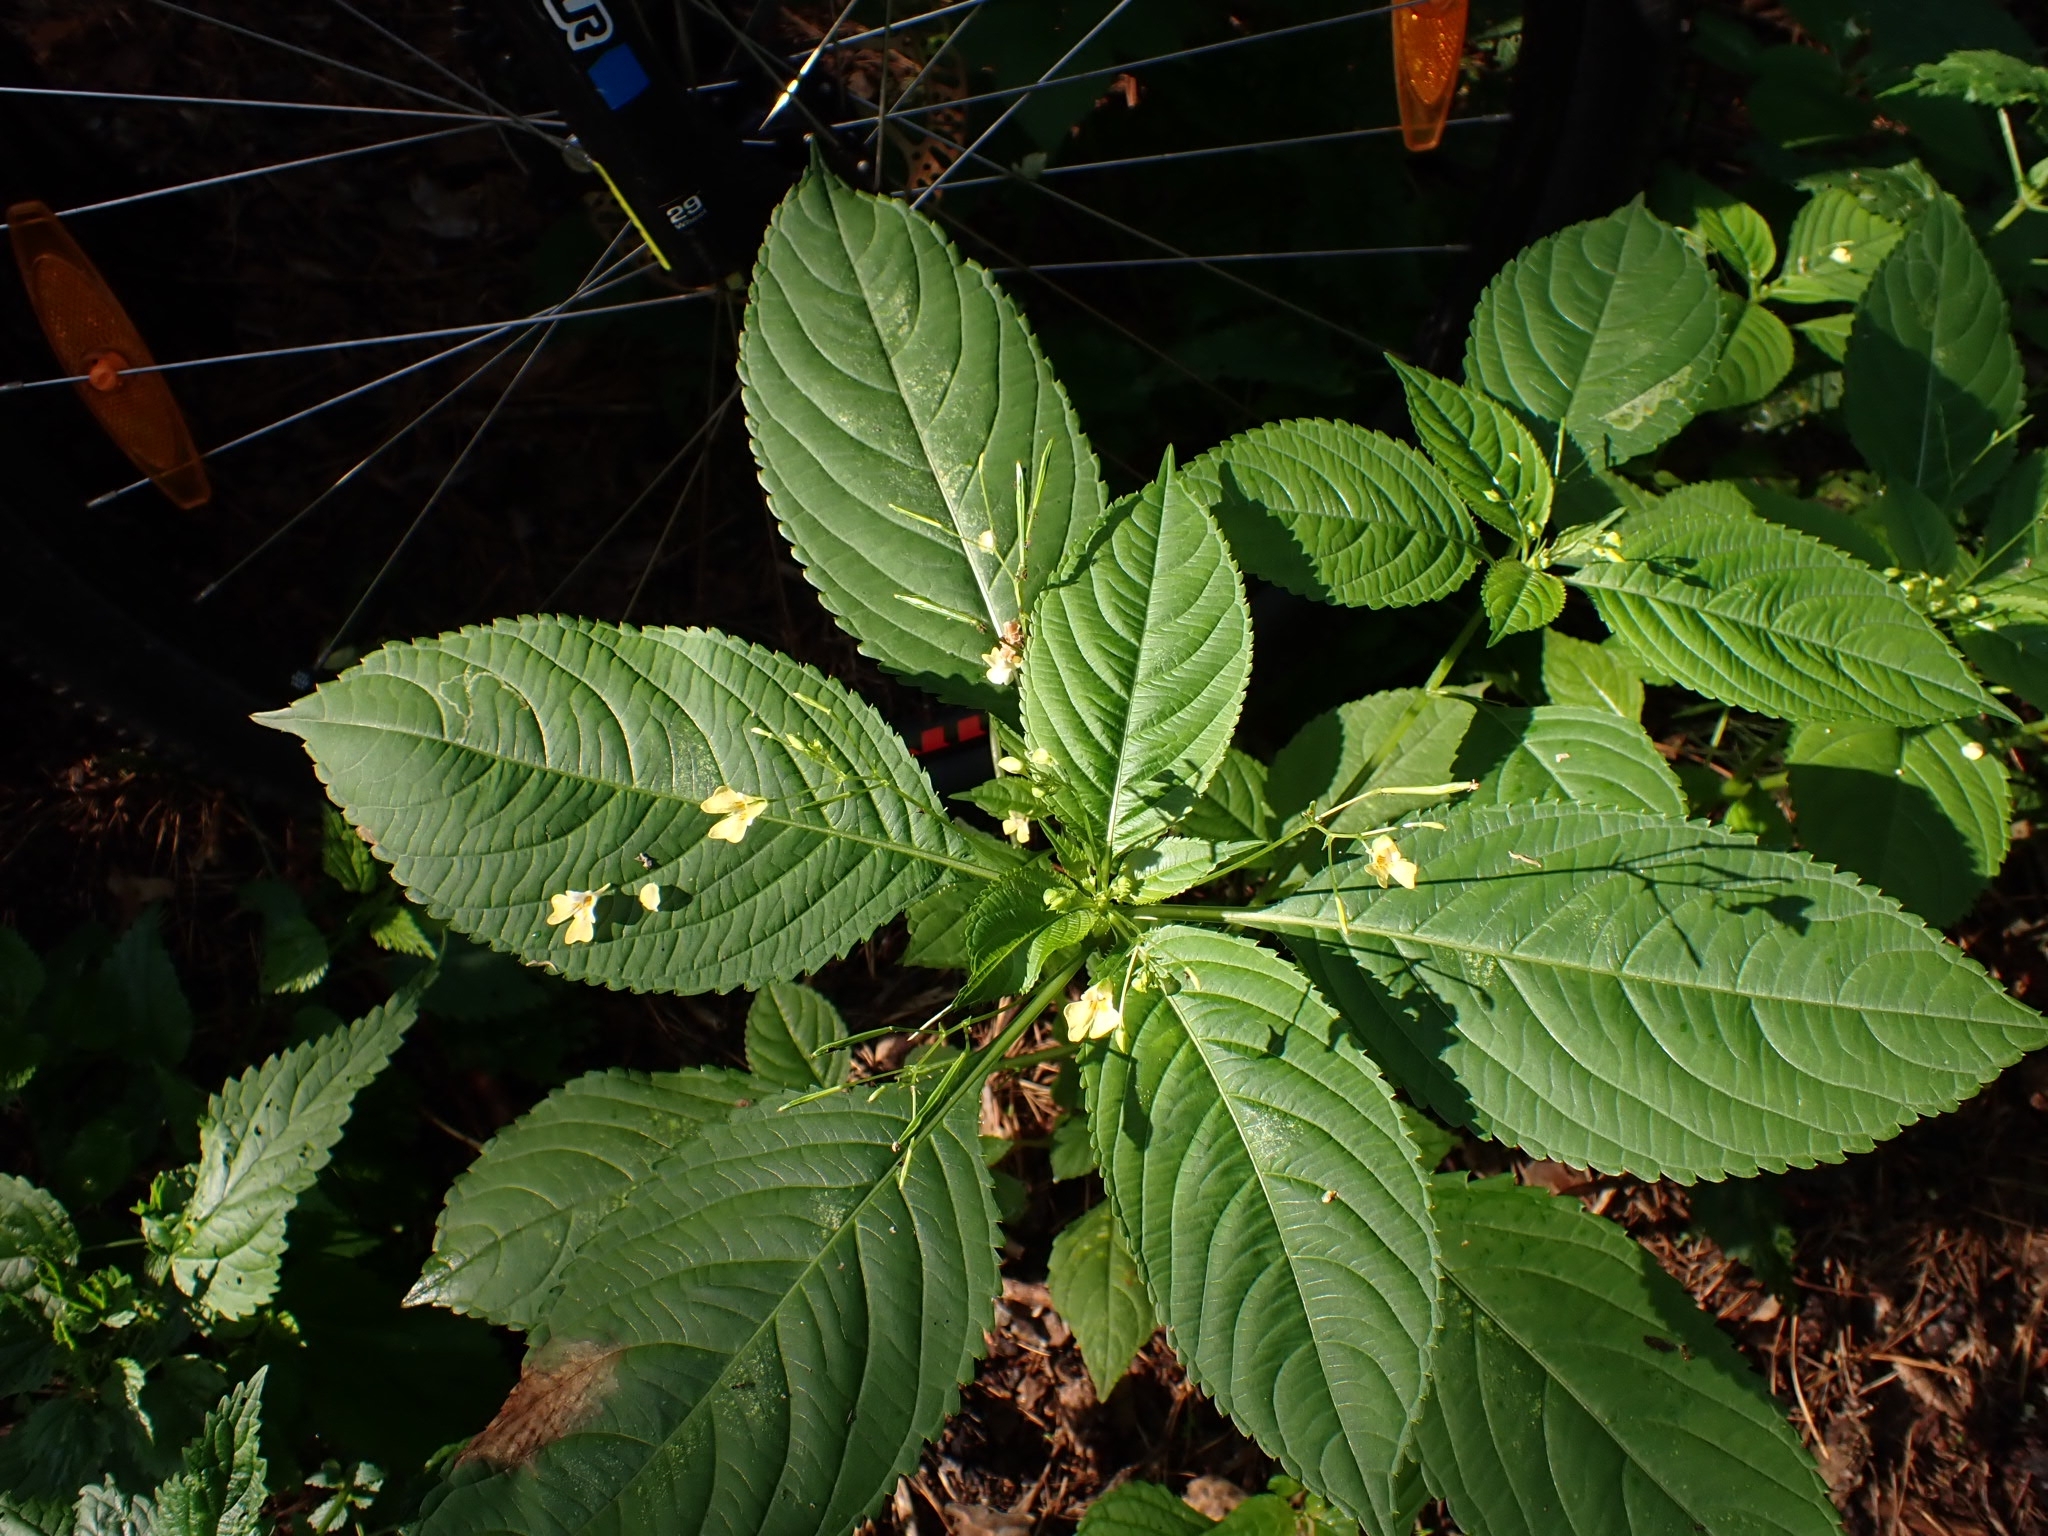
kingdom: Plantae
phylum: Tracheophyta
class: Magnoliopsida
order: Ericales
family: Balsaminaceae
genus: Impatiens
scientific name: Impatiens parviflora
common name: Small balsam
